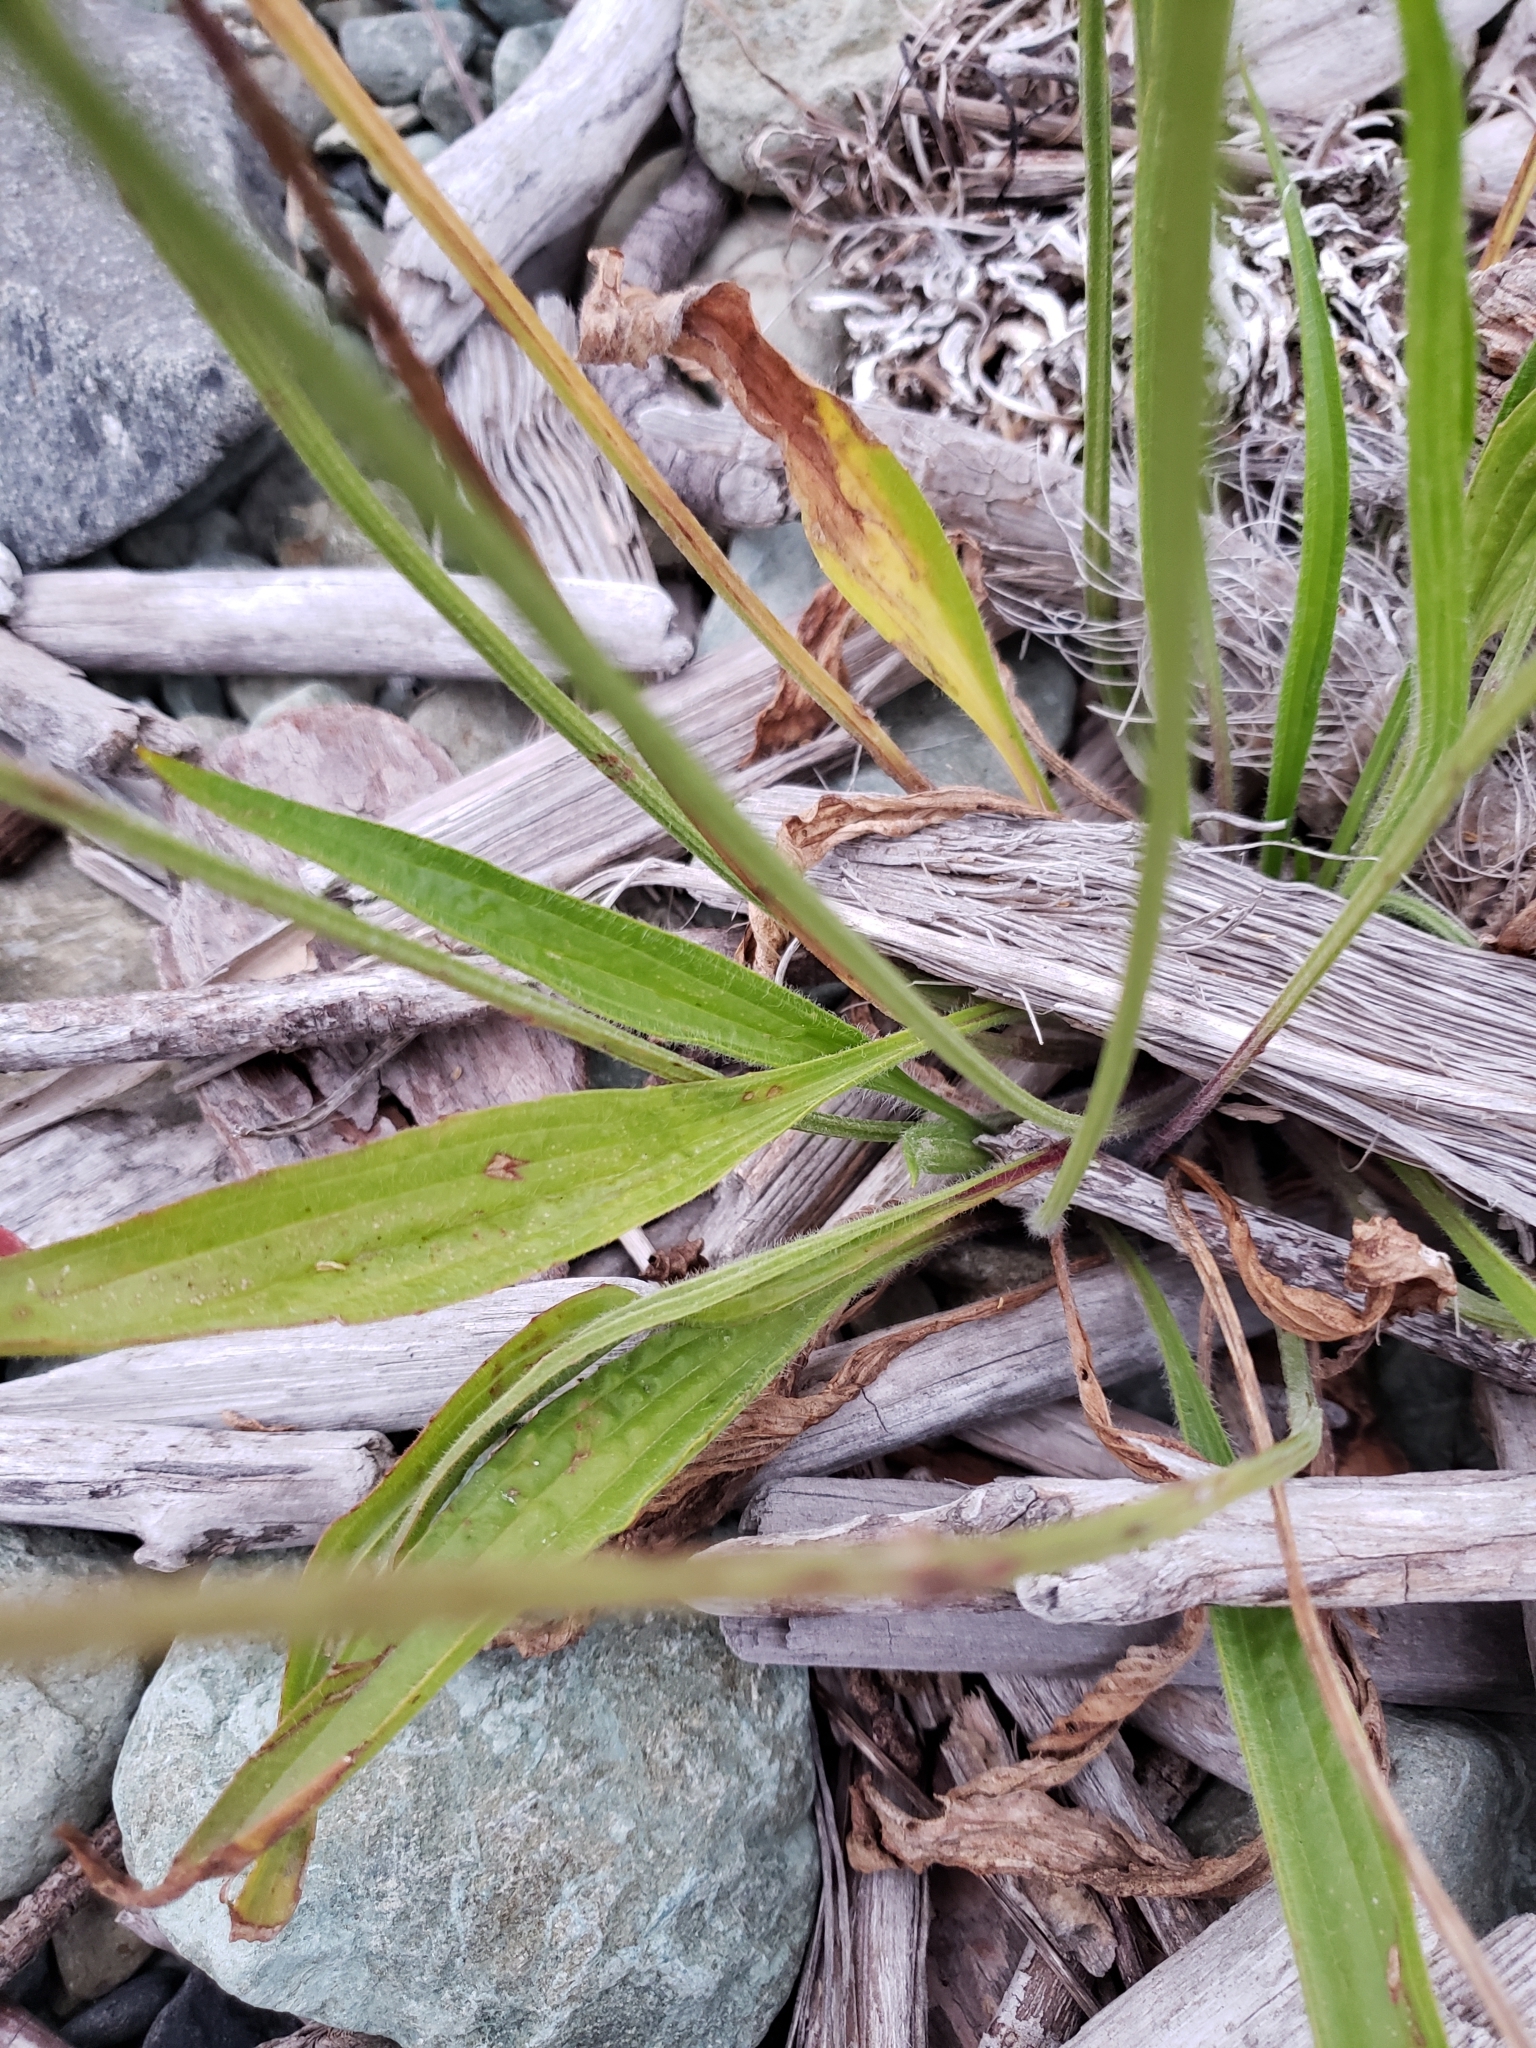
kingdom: Plantae
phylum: Tracheophyta
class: Magnoliopsida
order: Lamiales
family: Plantaginaceae
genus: Plantago
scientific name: Plantago lanceolata
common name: Ribwort plantain
